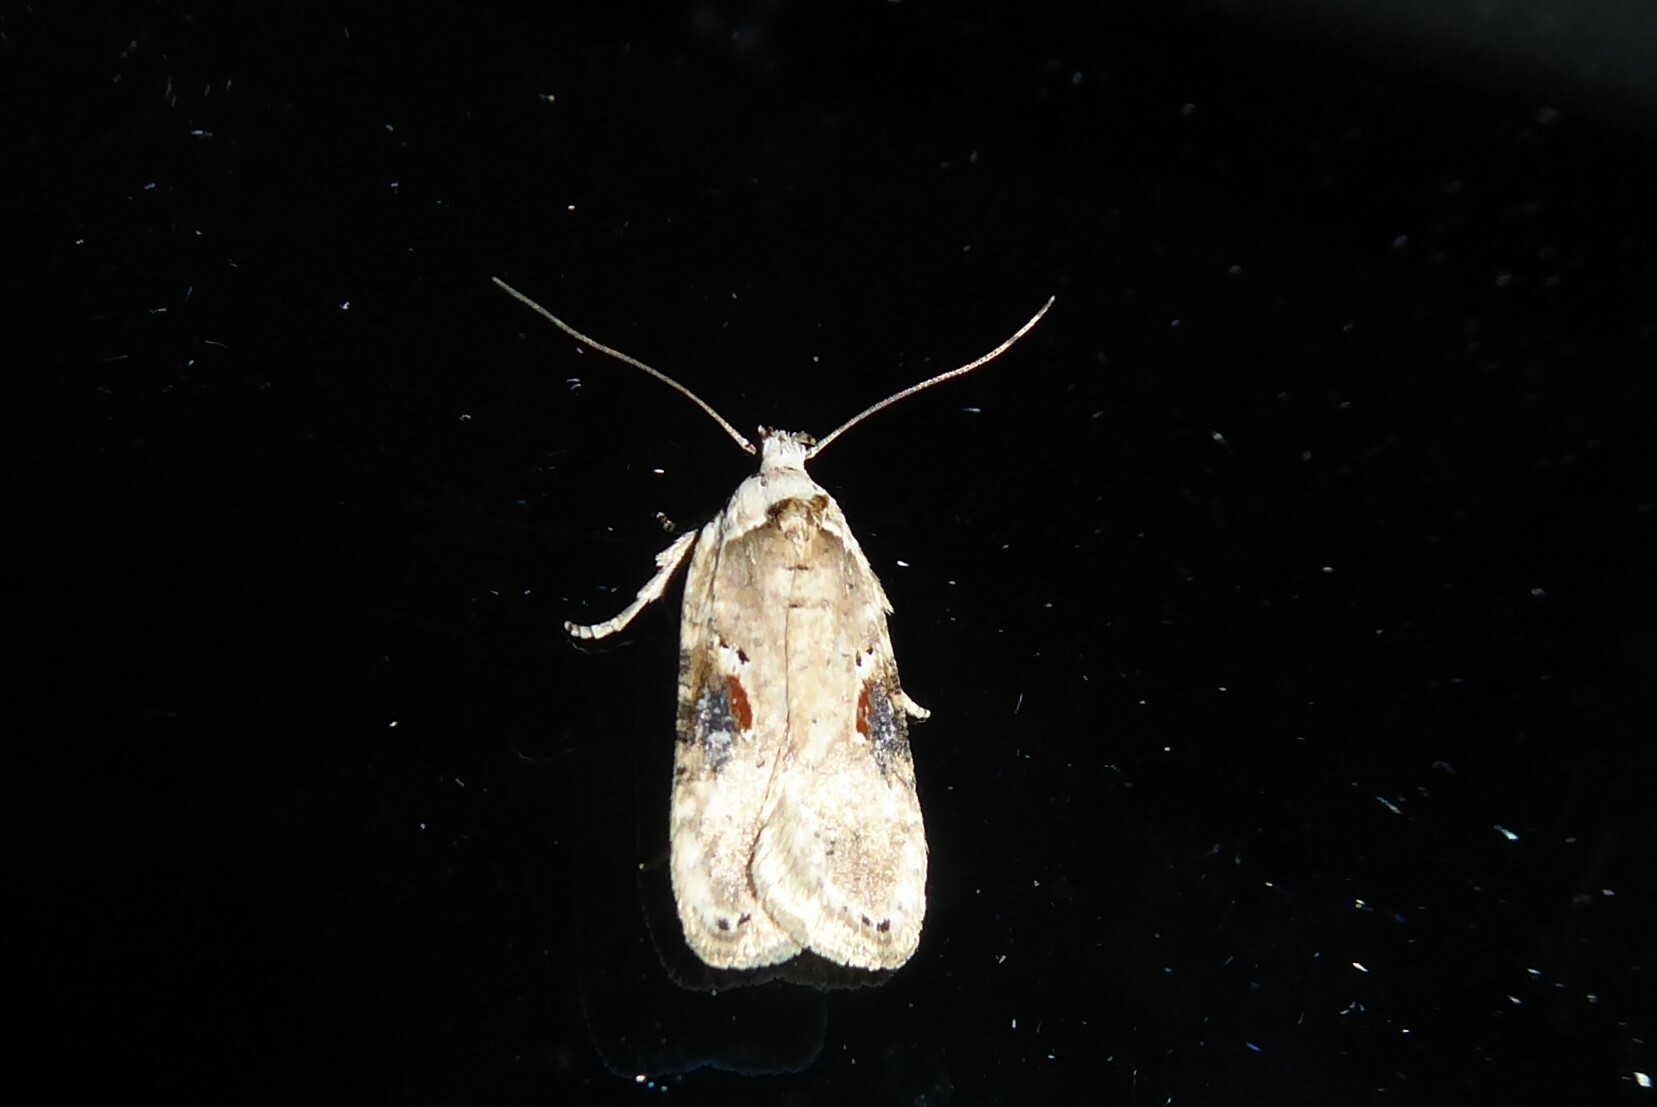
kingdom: Animalia
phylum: Arthropoda
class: Insecta
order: Lepidoptera
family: Depressariidae
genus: Agonopterix
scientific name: Agonopterix alstroemeriana
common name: Moth
